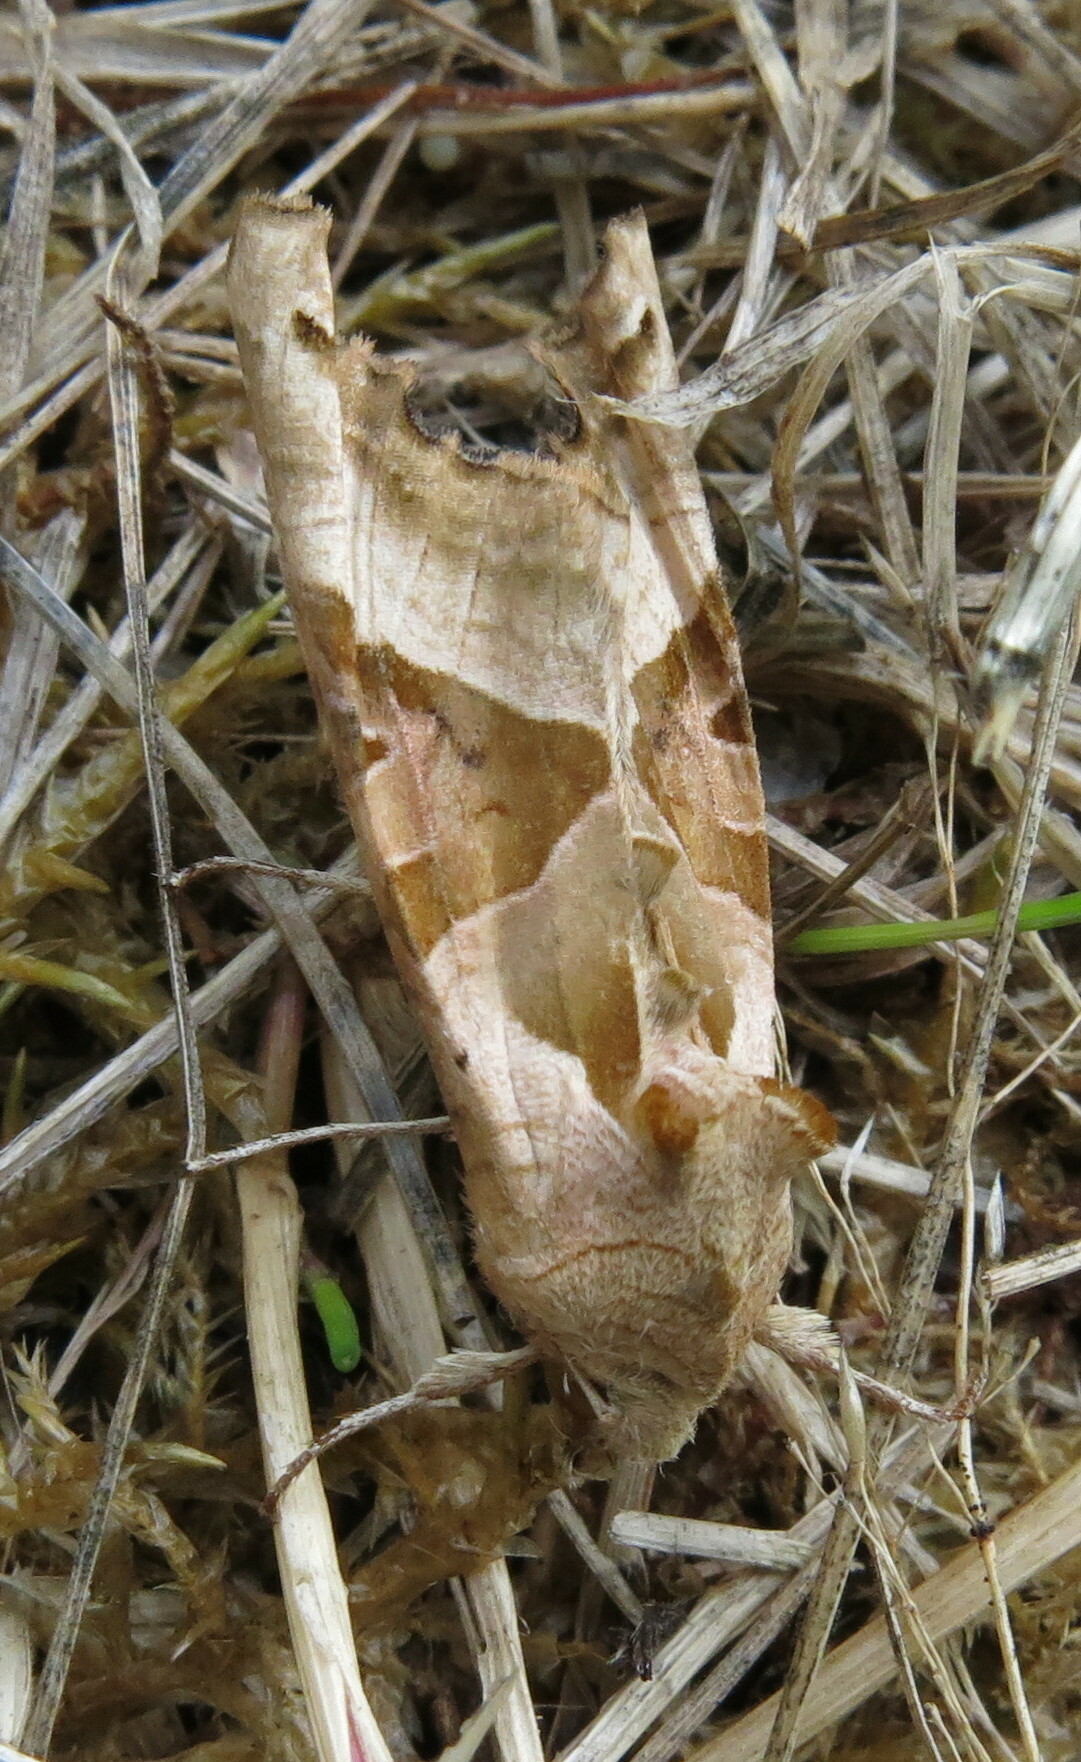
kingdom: Animalia
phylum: Arthropoda
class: Insecta
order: Lepidoptera
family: Noctuidae
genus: Phlogophora
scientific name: Phlogophora meticulosa
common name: Angle shades
